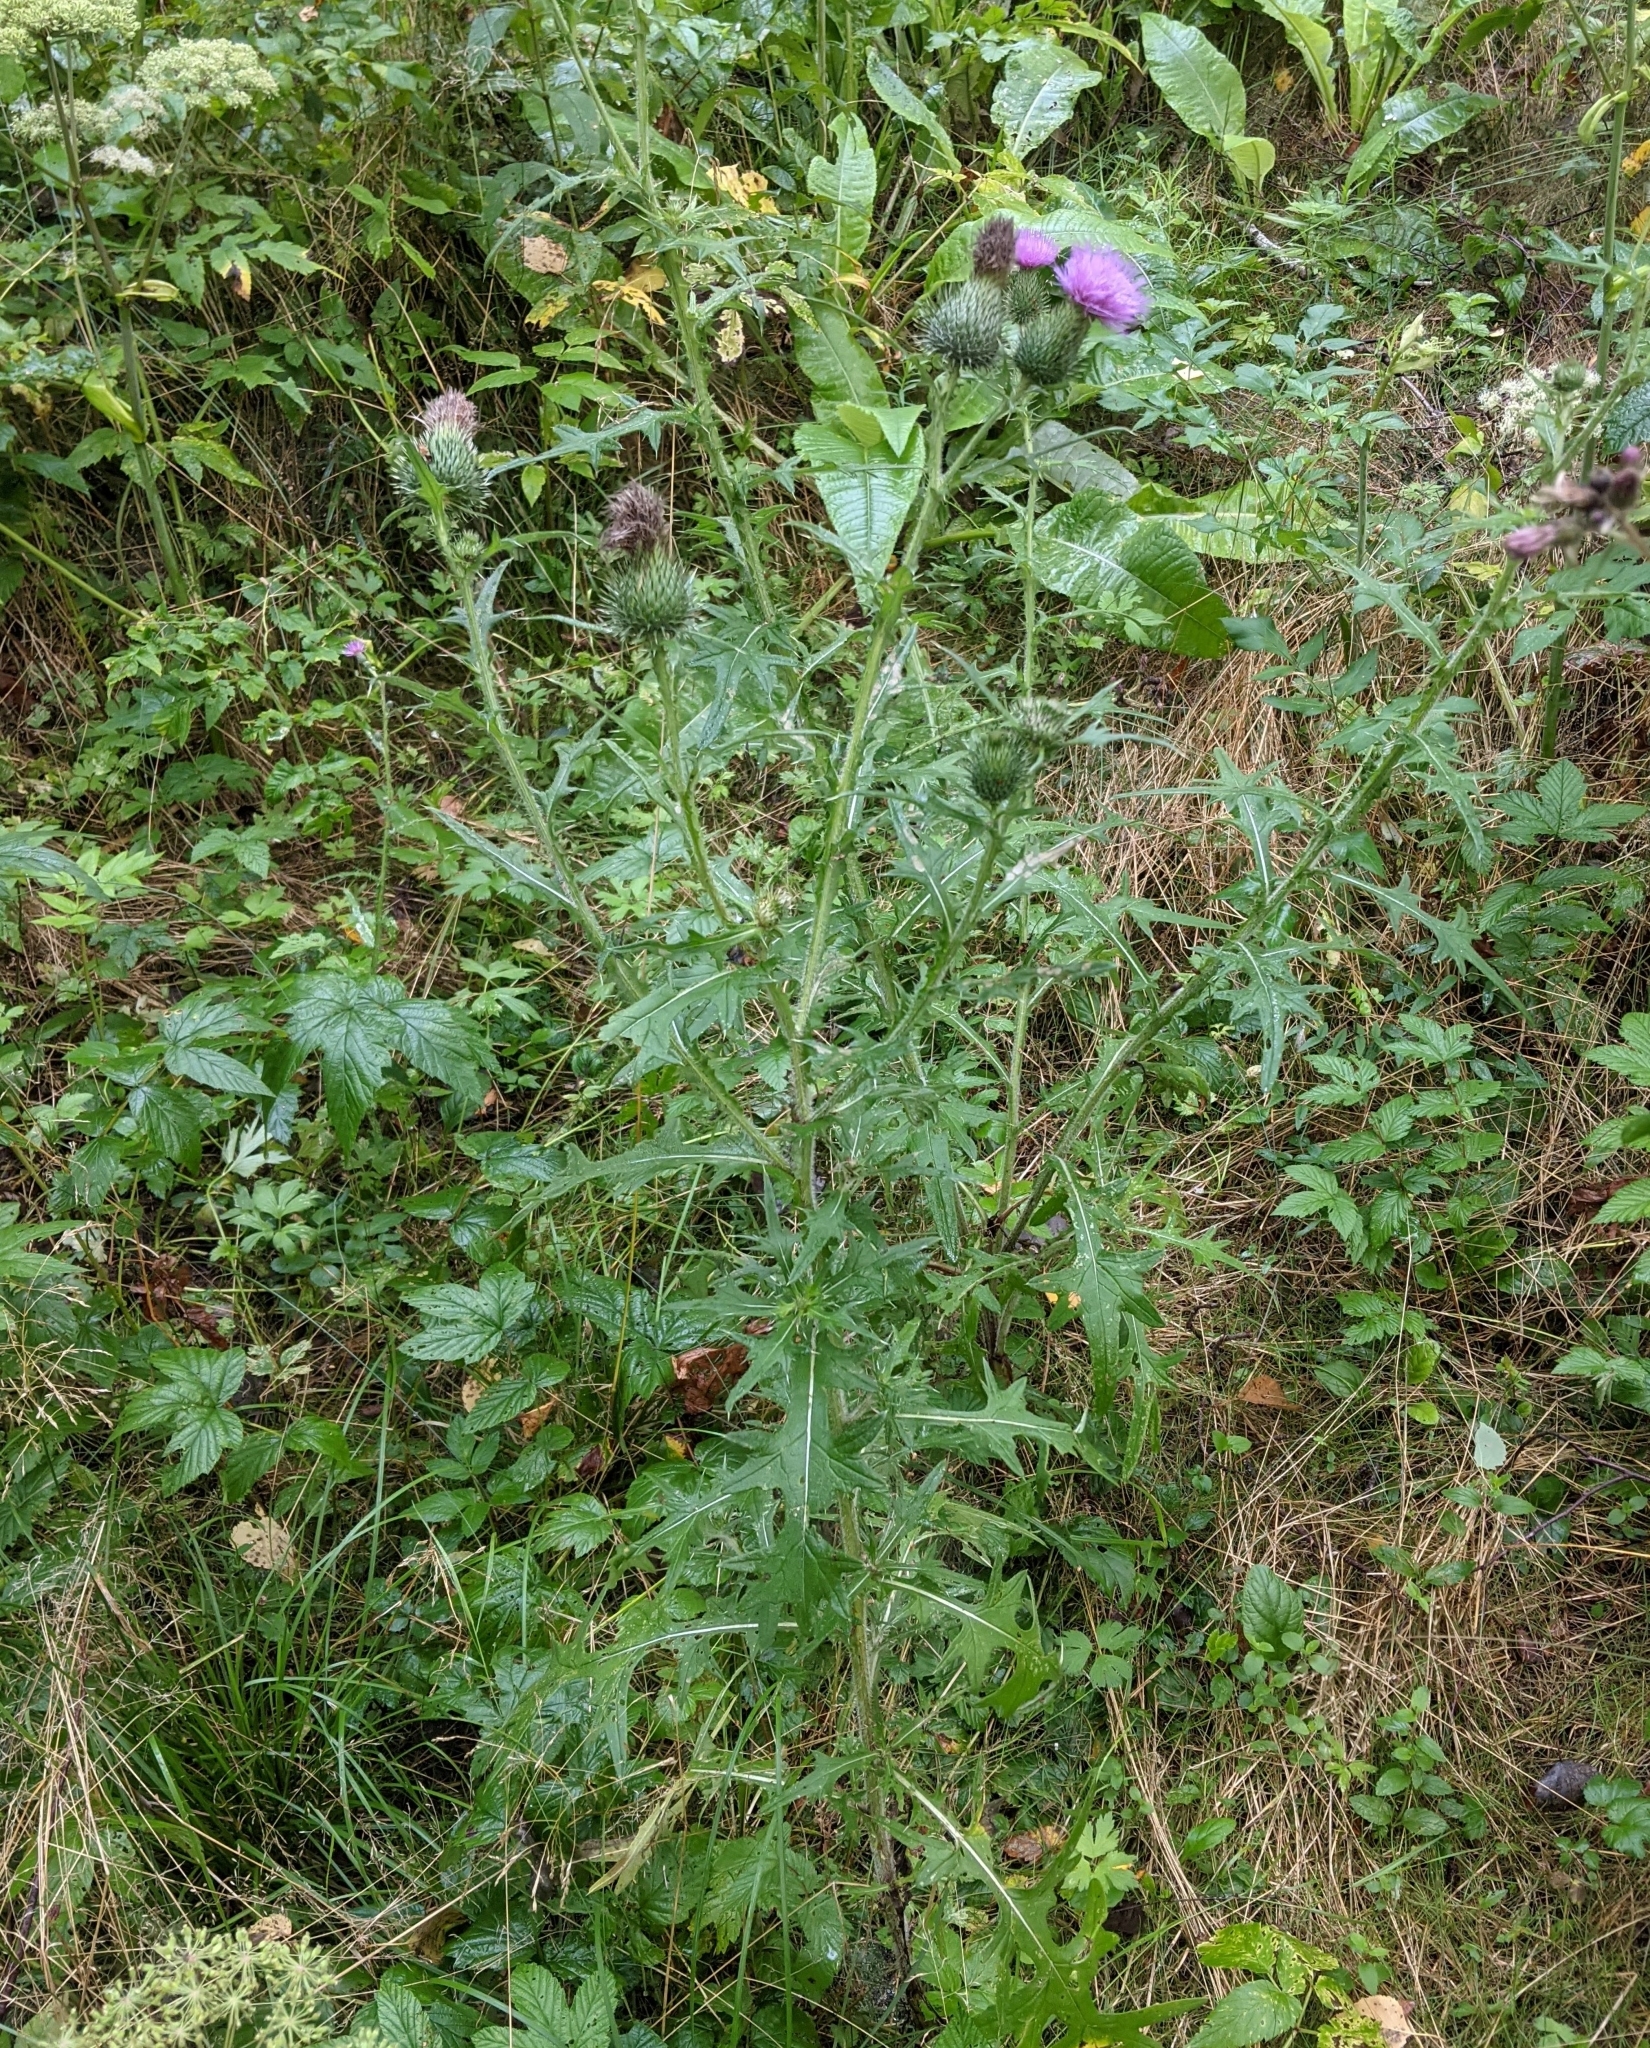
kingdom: Plantae
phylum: Tracheophyta
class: Magnoliopsida
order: Asterales
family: Asteraceae
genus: Cirsium
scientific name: Cirsium vulgare
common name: Bull thistle
